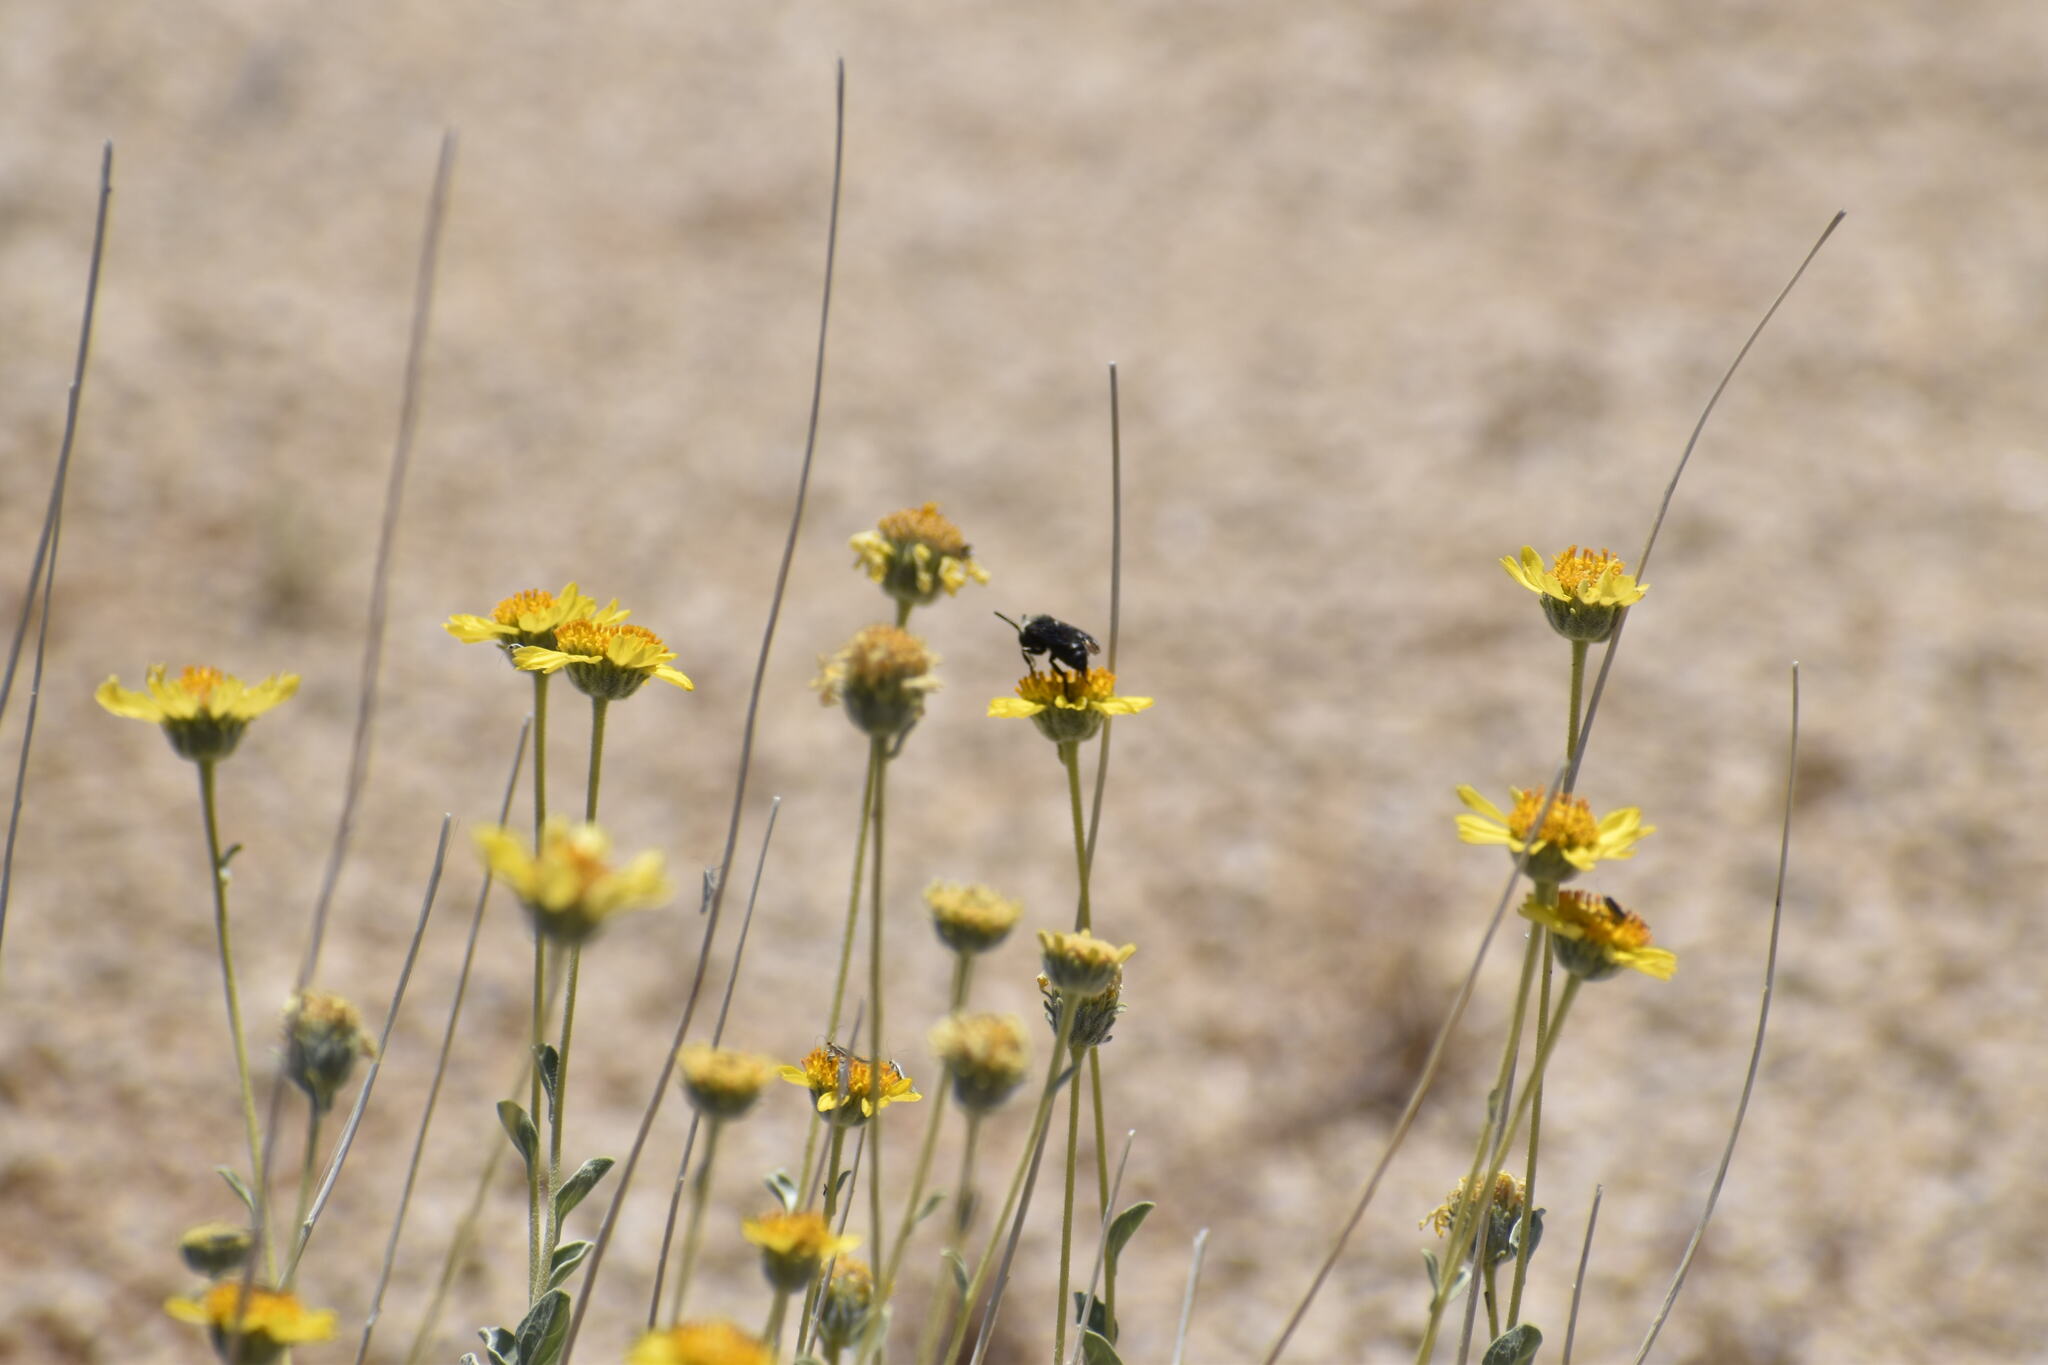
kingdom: Animalia
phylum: Arthropoda
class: Insecta
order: Hymenoptera
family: Apidae
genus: Xeromelecta
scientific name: Xeromelecta larreae
